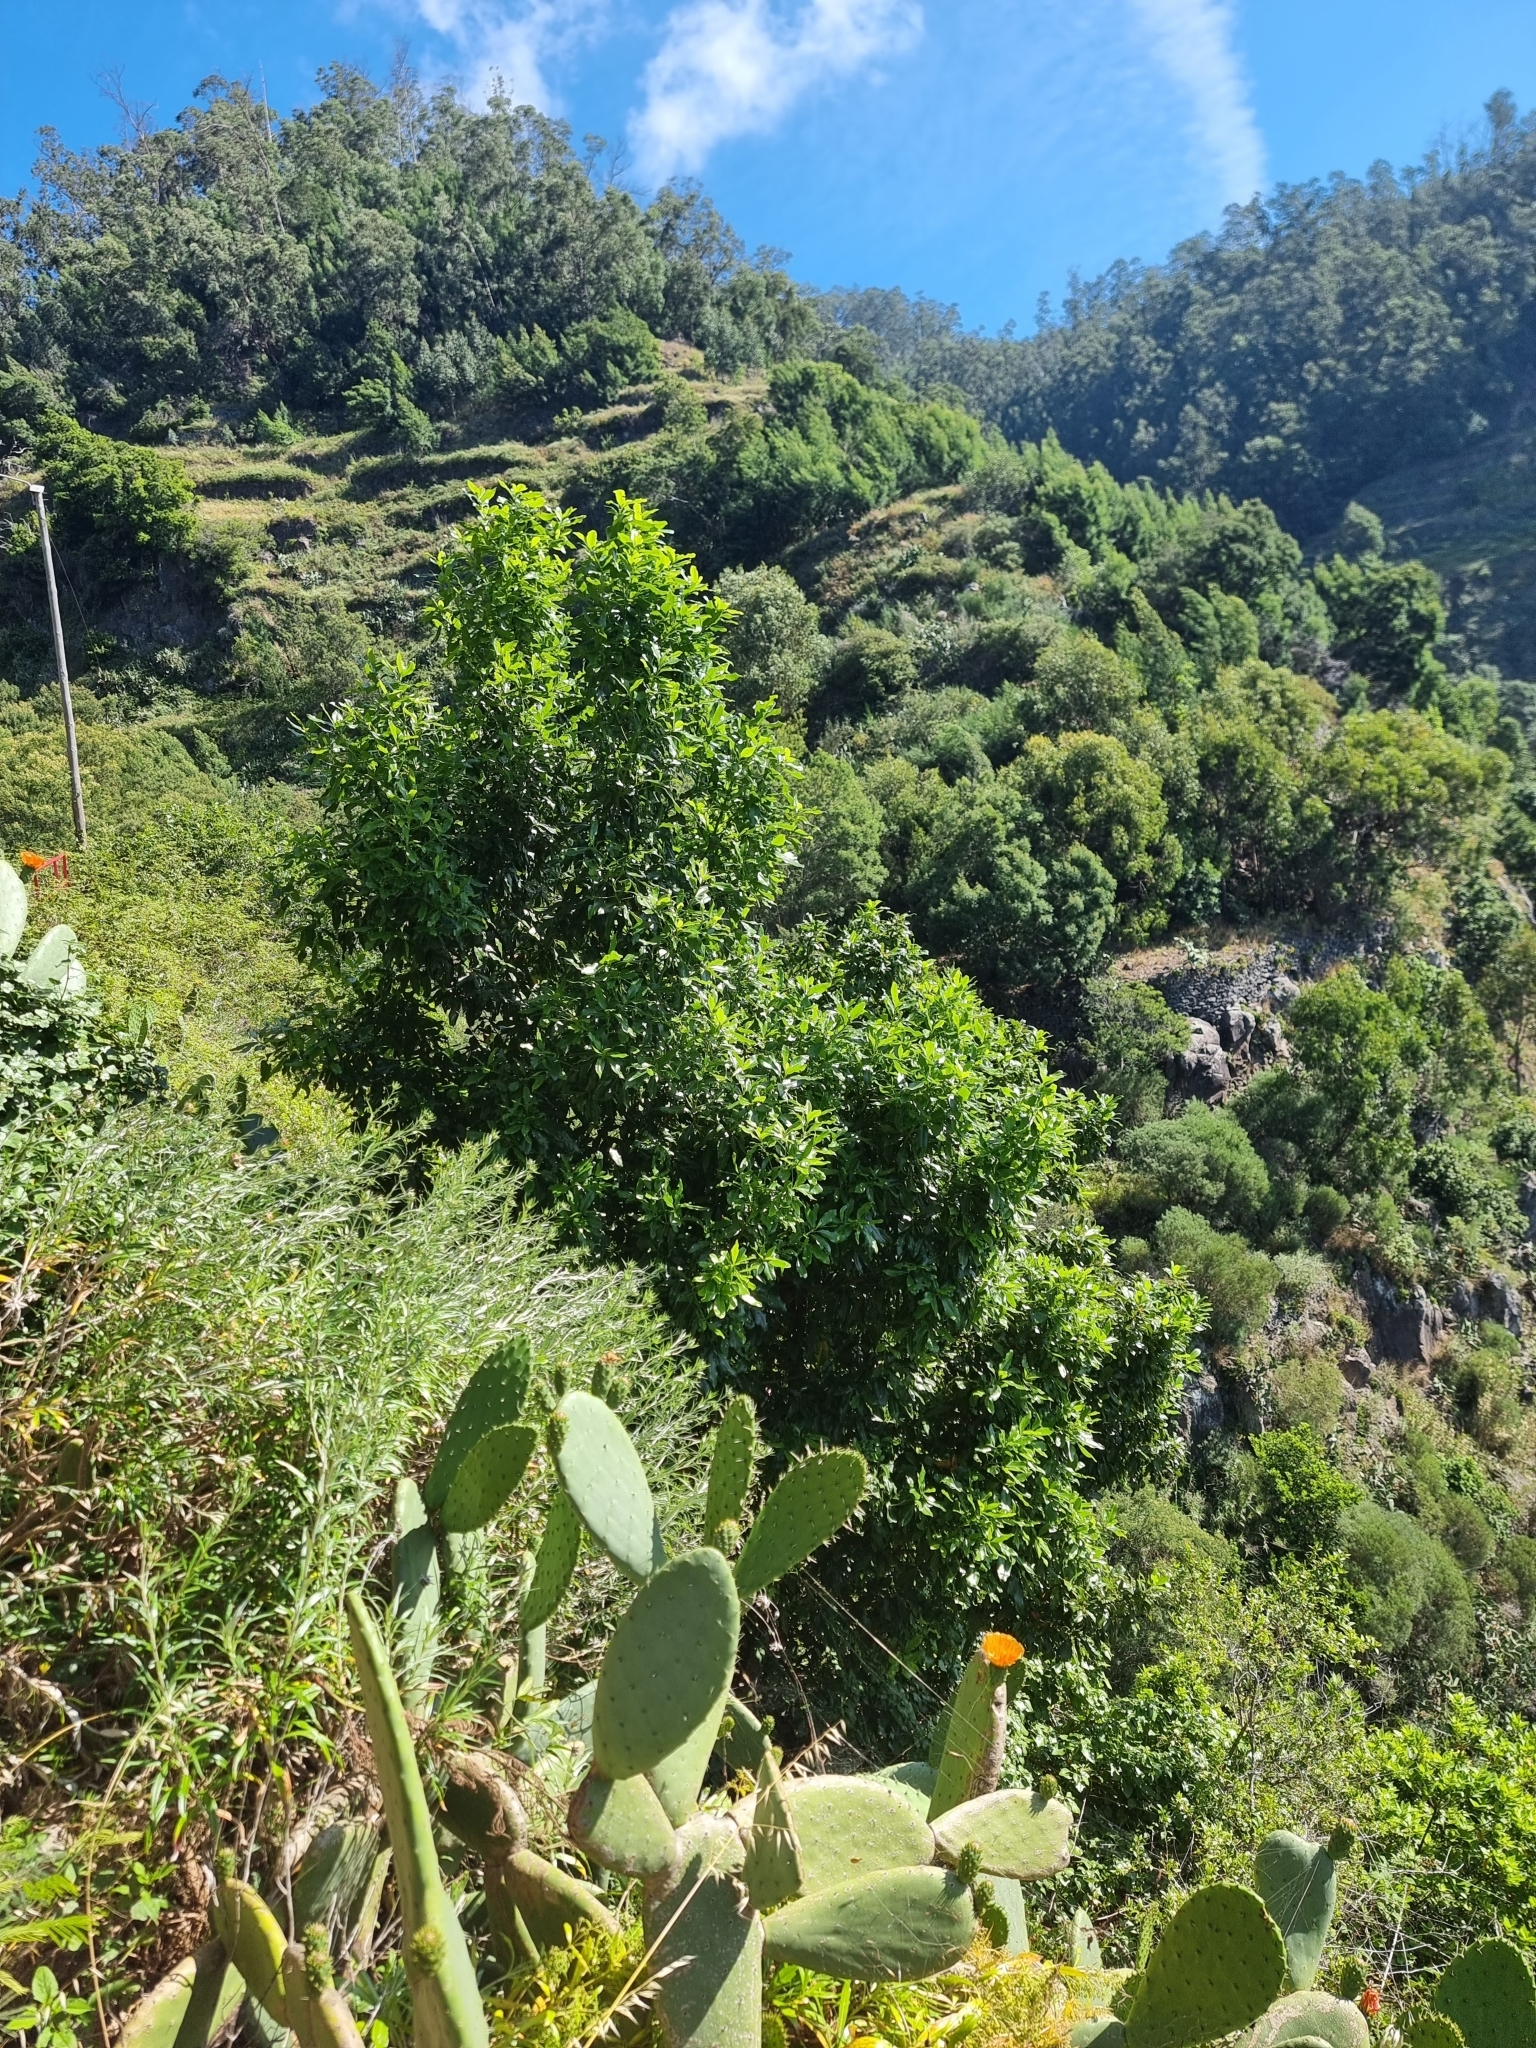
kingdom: Plantae
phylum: Tracheophyta
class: Magnoliopsida
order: Laurales
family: Lauraceae
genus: Apollonias
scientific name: Apollonias barbujana
